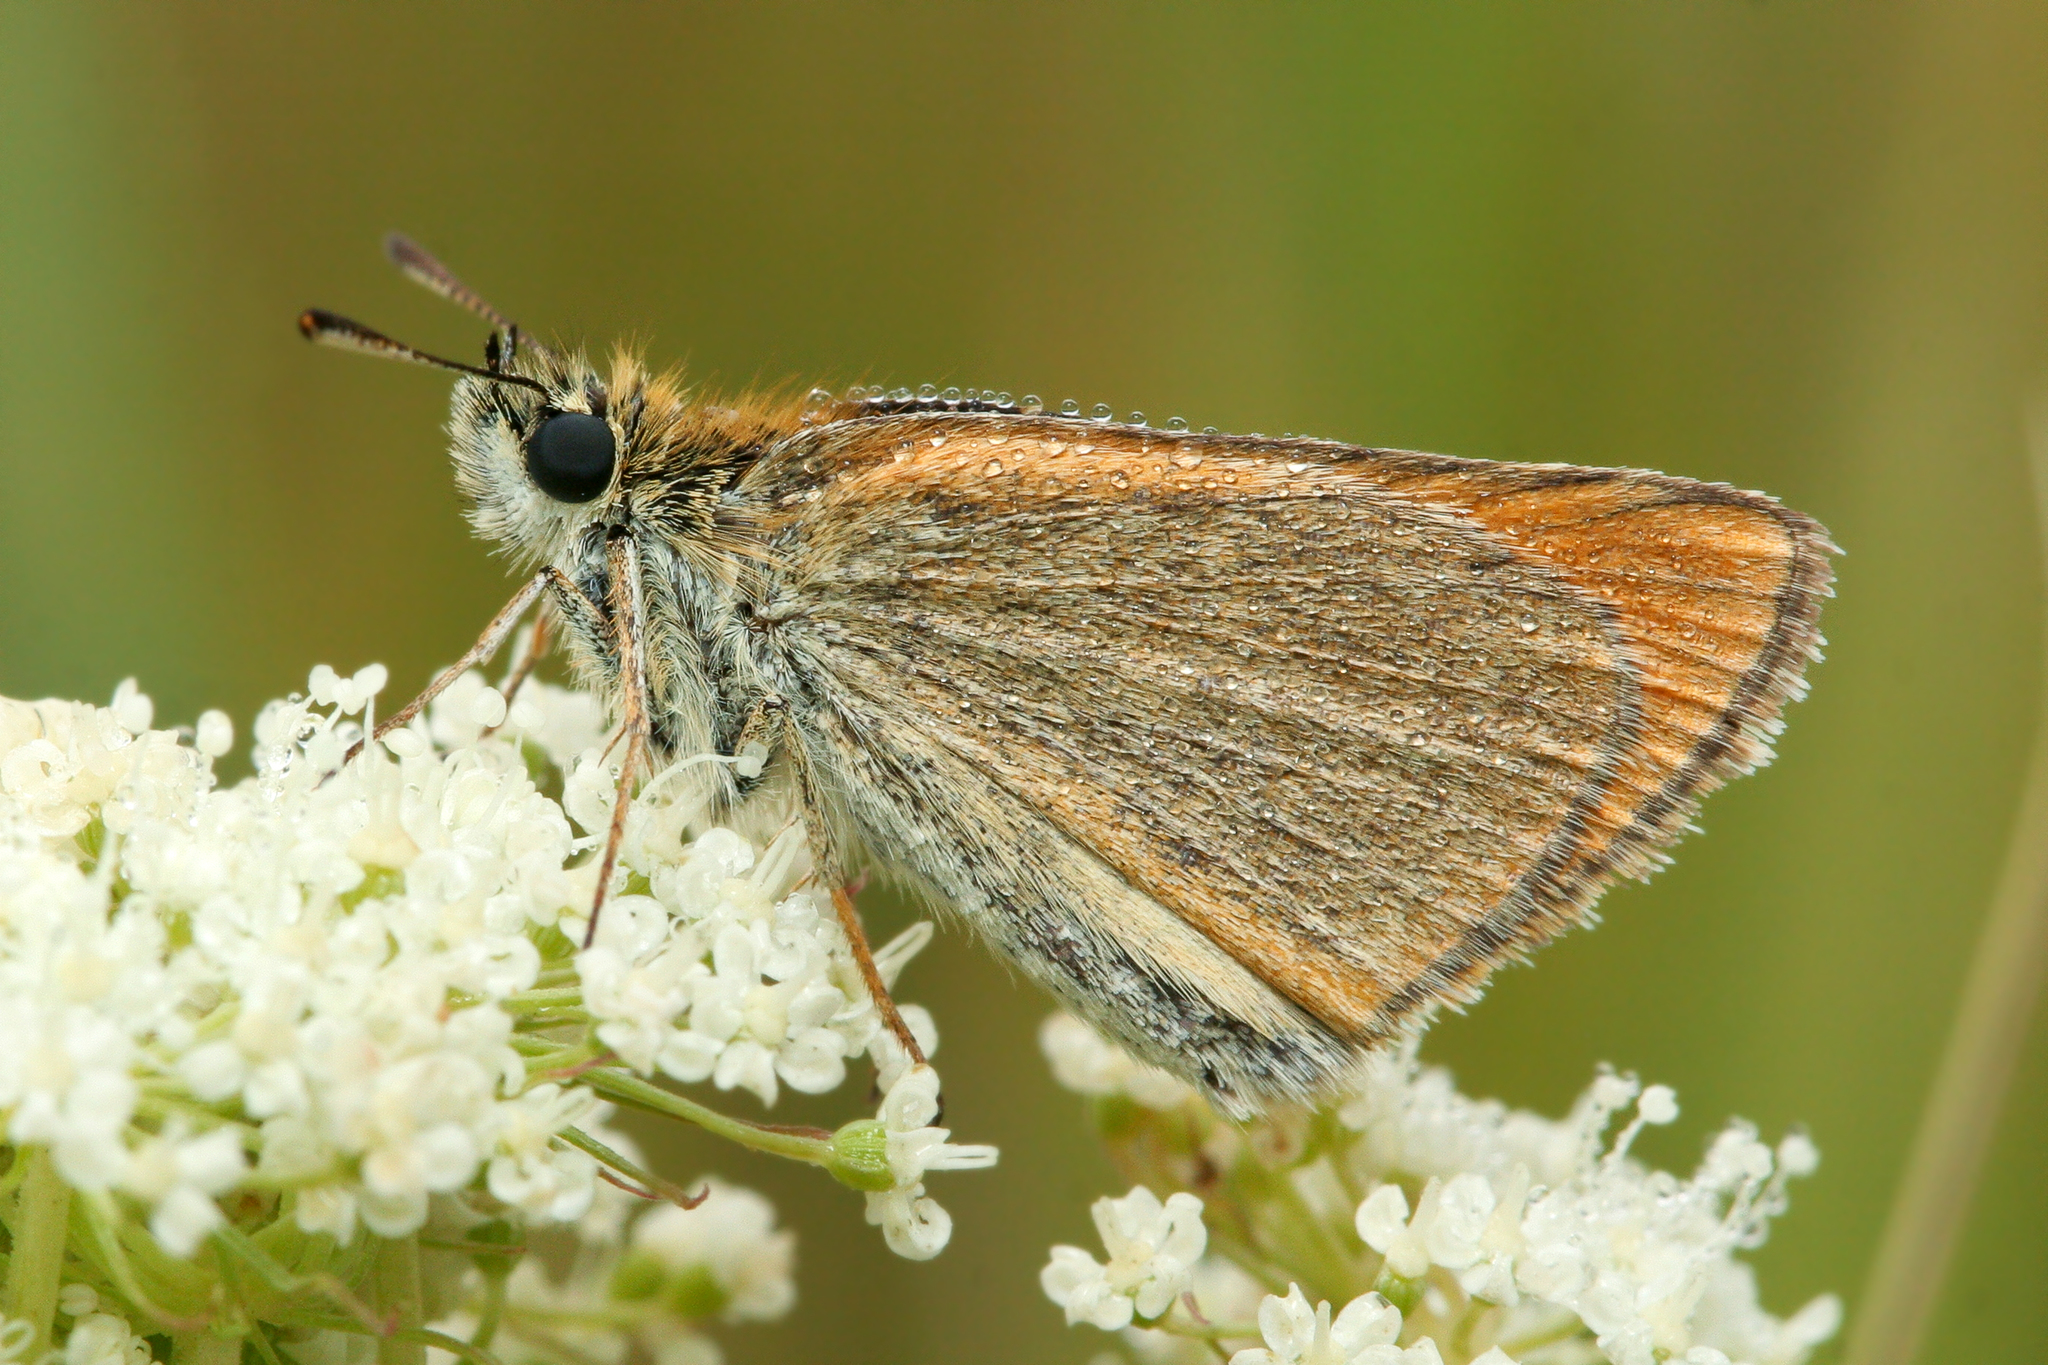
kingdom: Animalia
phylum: Arthropoda
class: Insecta
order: Lepidoptera
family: Hesperiidae
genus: Thymelicus
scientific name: Thymelicus lineola
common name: Essex skipper
